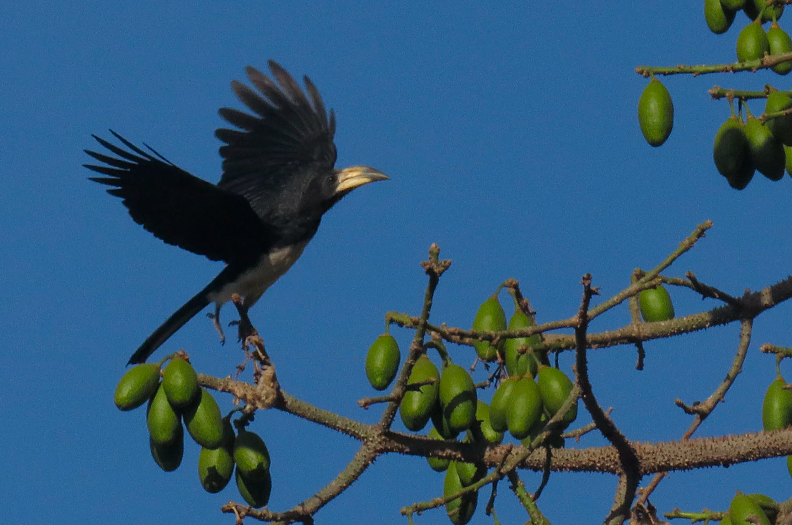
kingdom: Animalia
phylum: Chordata
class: Aves
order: Bucerotiformes
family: Bucerotidae
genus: Lophoceros
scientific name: Lophoceros fasciatus
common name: African pied hornbill
